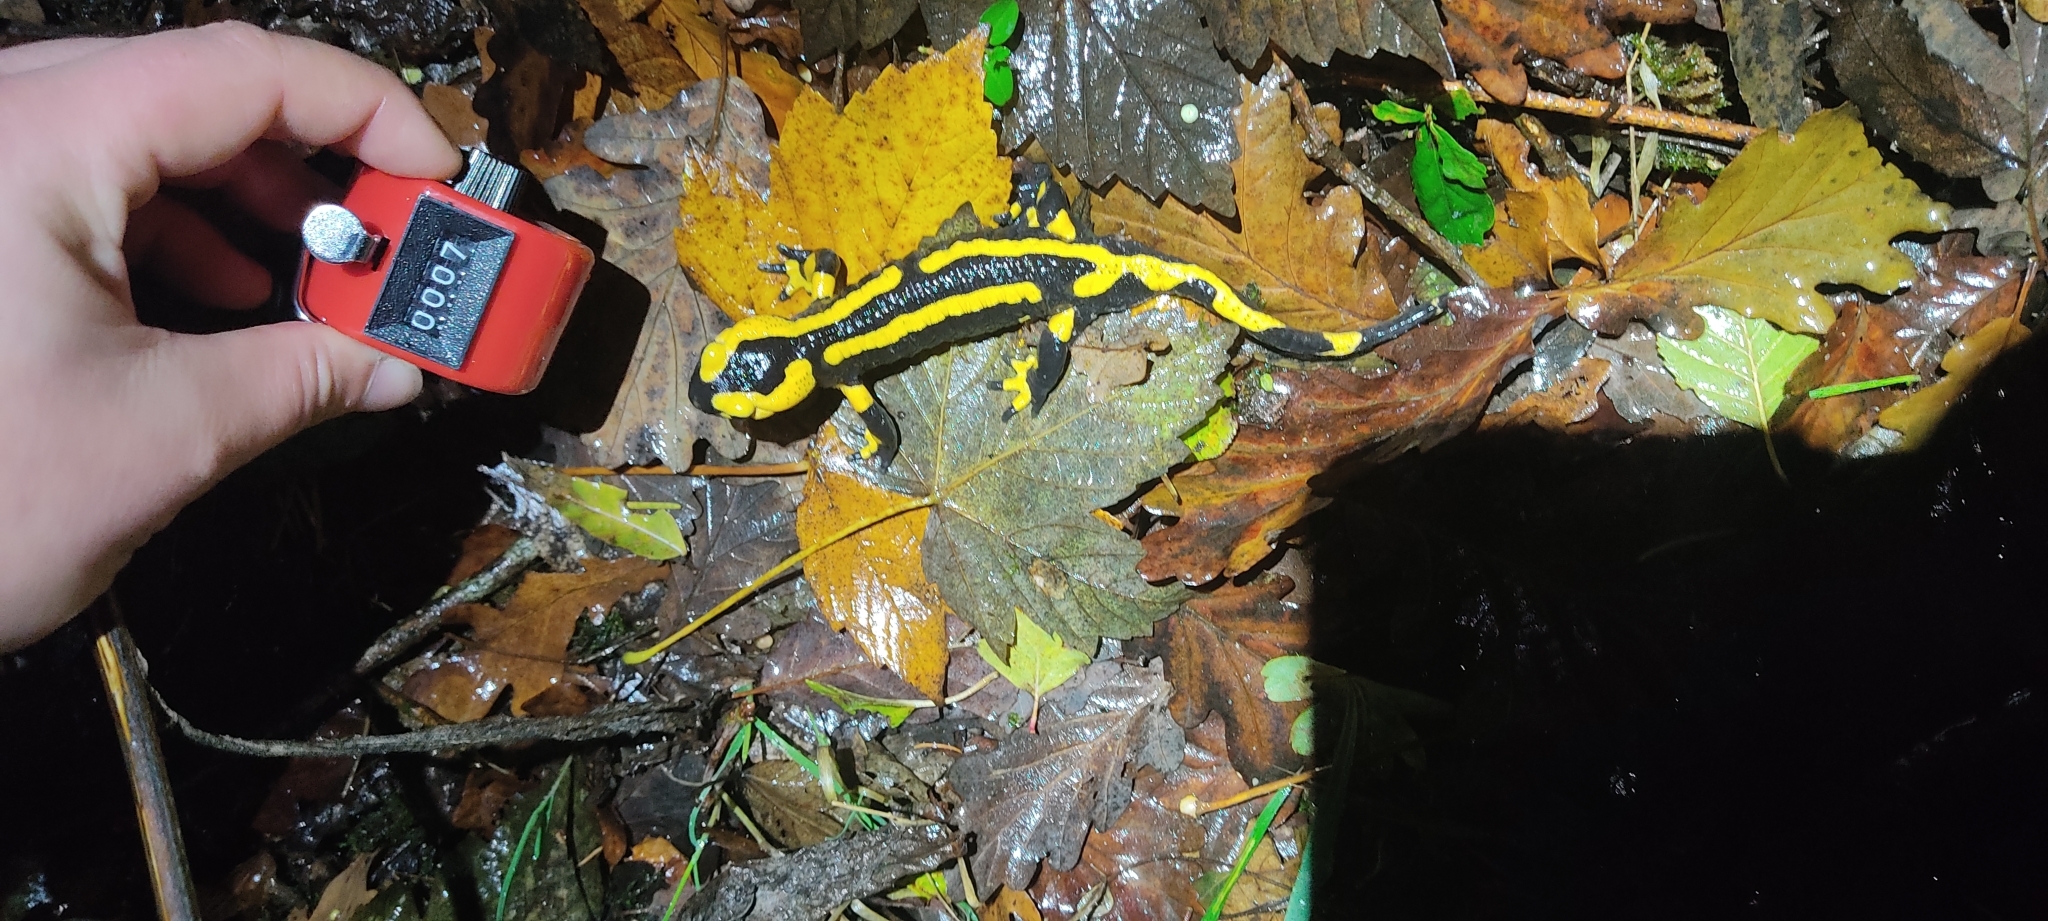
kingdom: Animalia
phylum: Chordata
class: Amphibia
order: Caudata
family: Salamandridae
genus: Salamandra
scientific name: Salamandra salamandra
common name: Fire salamander
